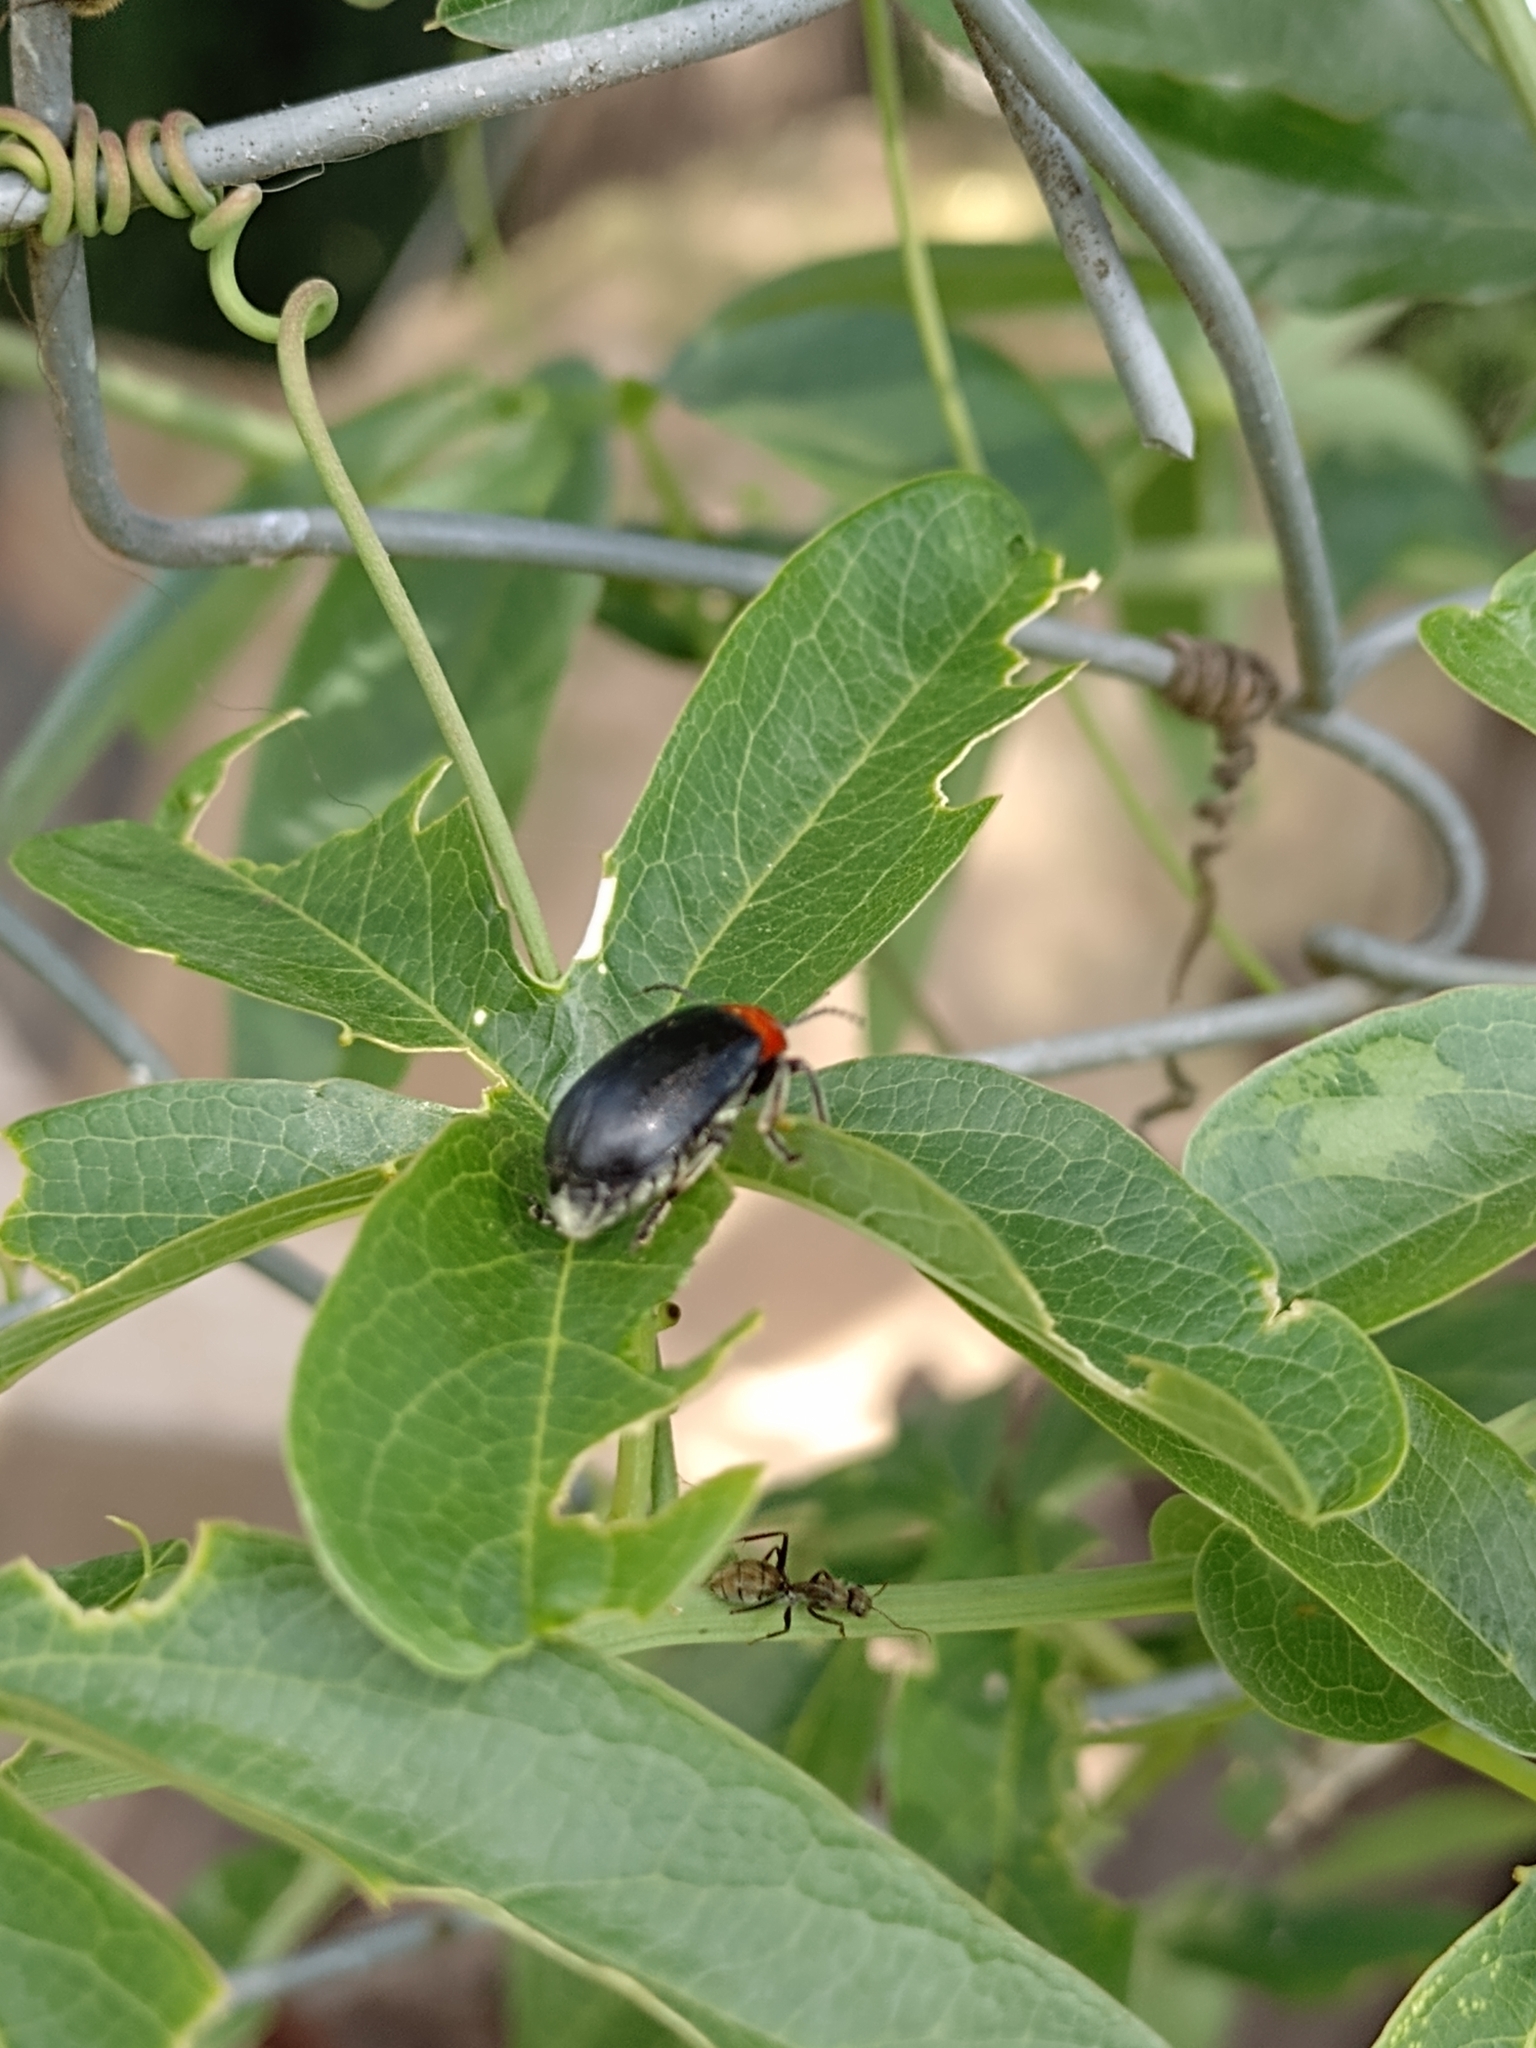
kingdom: Animalia
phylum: Arthropoda
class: Insecta
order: Coleoptera
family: Chrysomelidae
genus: Cacoscelis
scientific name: Cacoscelis
